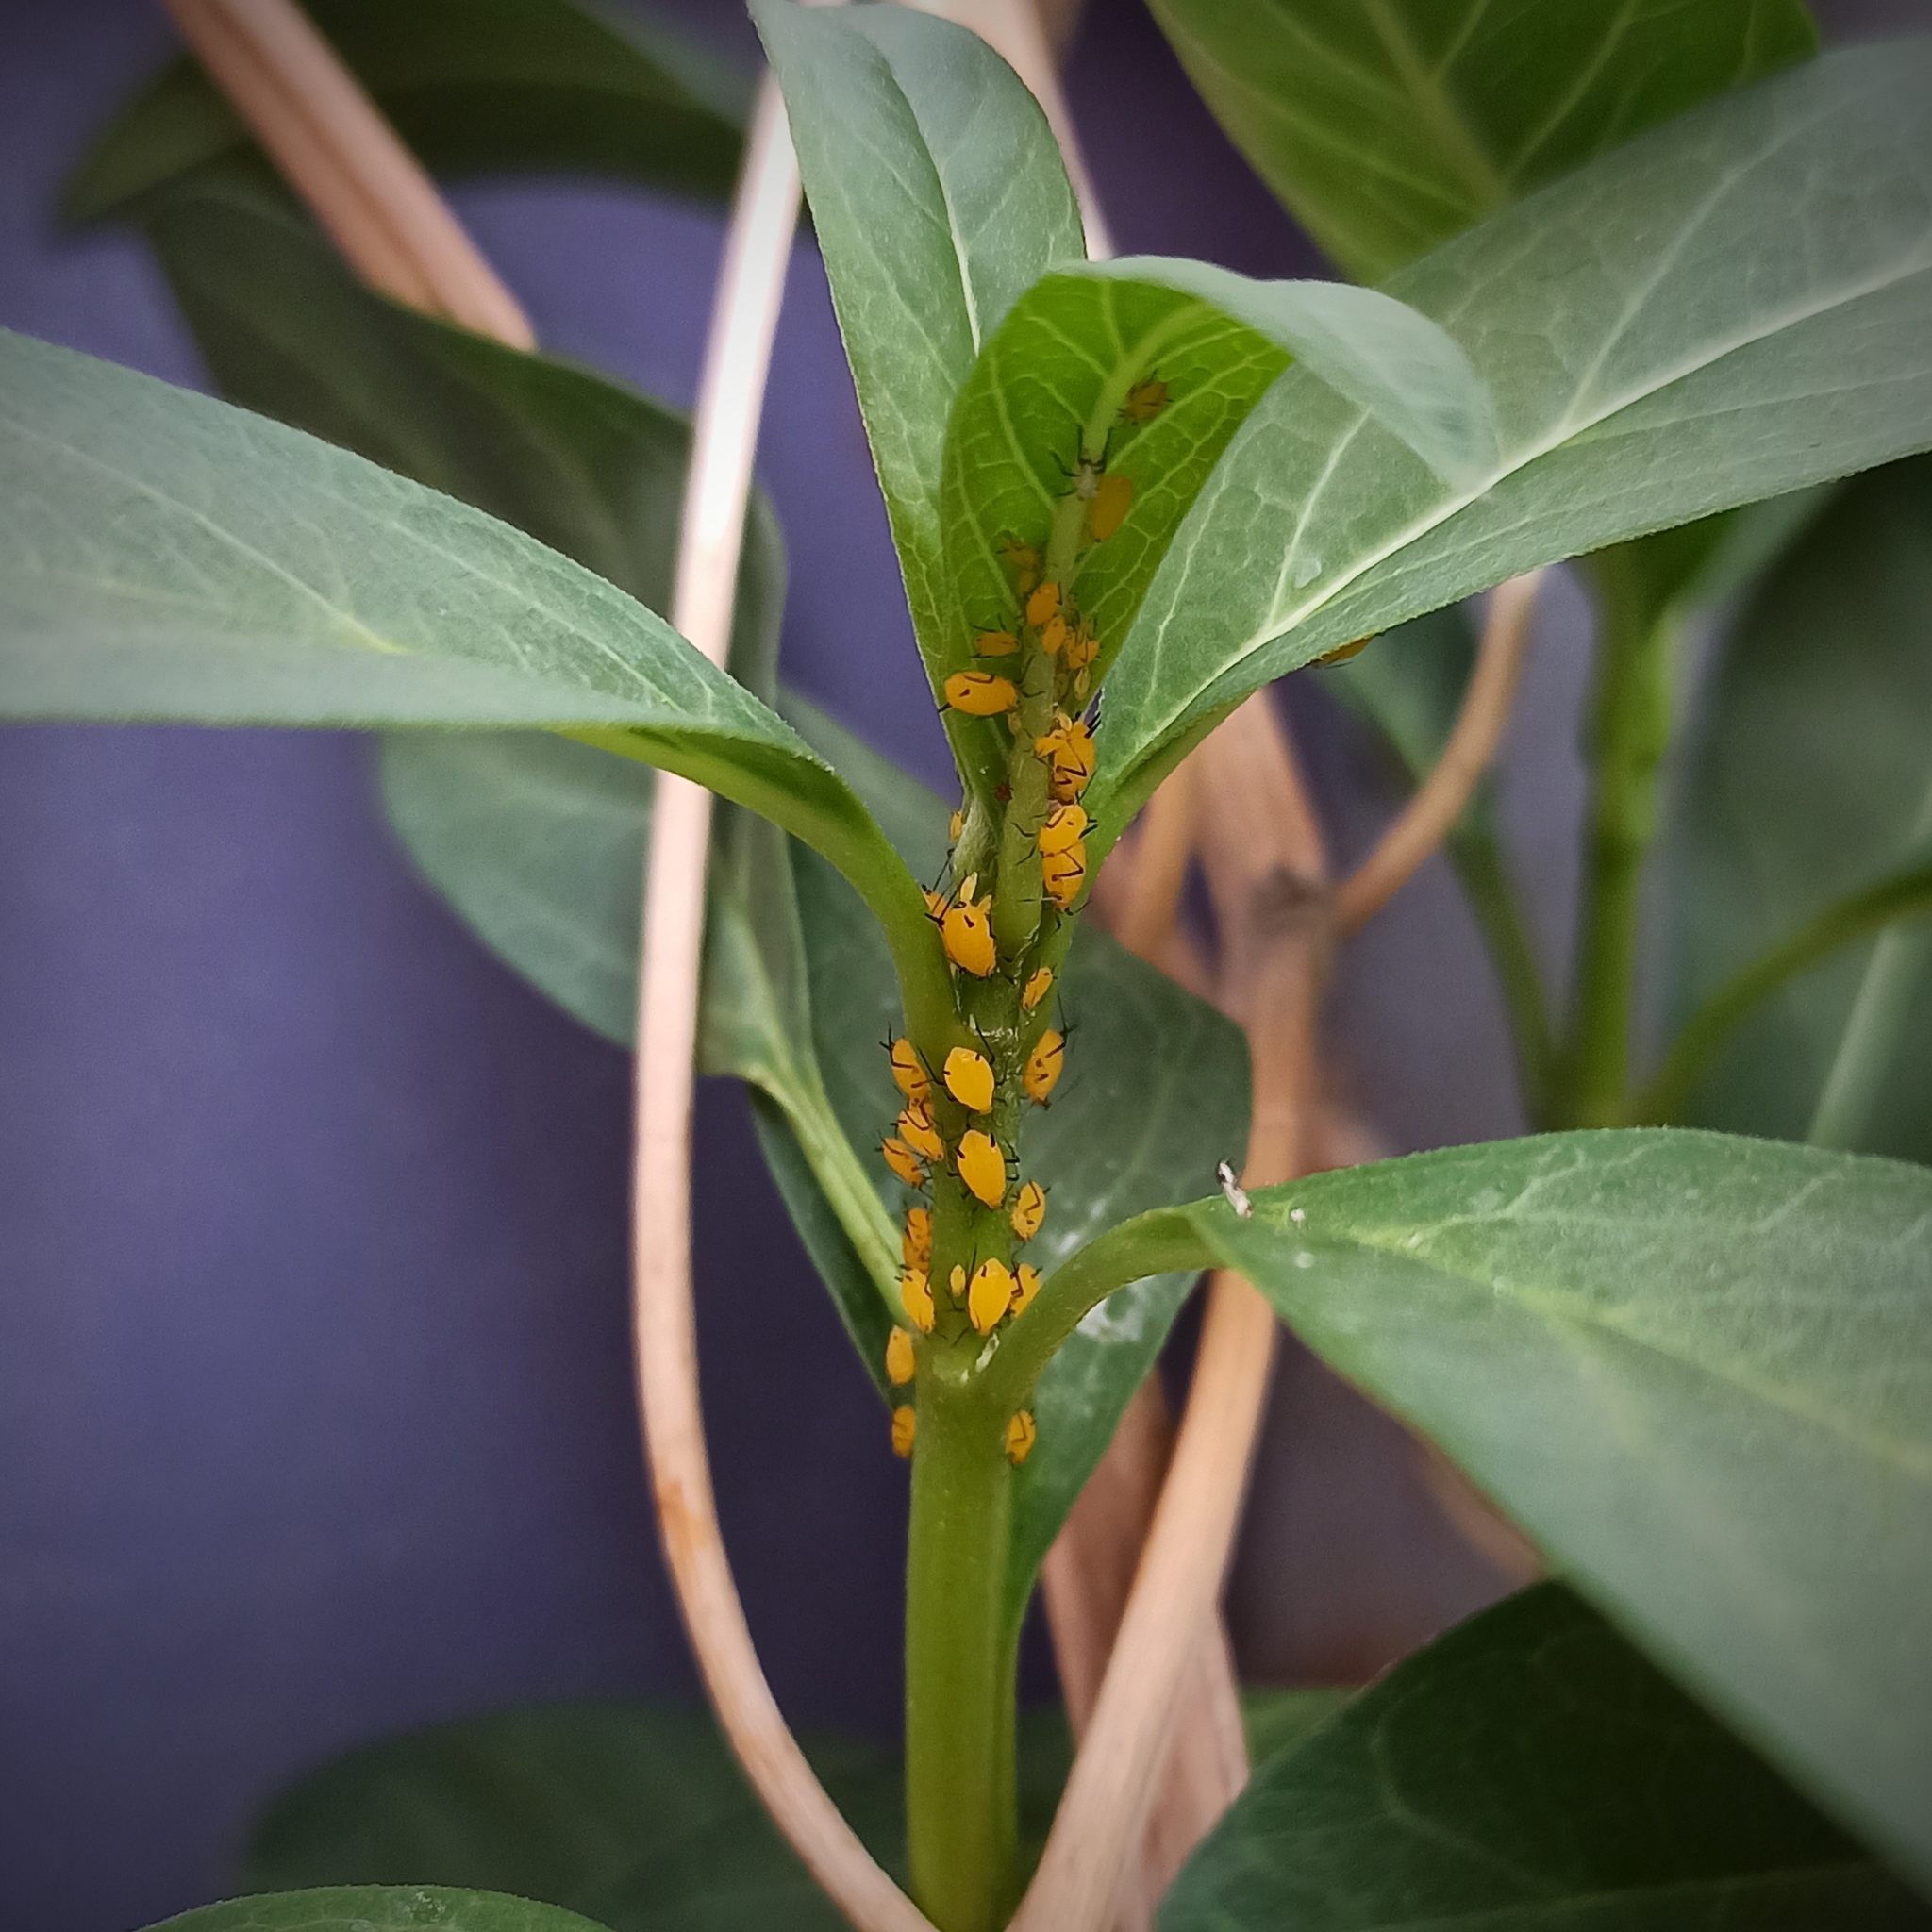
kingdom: Animalia
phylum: Arthropoda
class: Insecta
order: Hemiptera
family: Aphididae
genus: Aphis
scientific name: Aphis nerii
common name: Oleander aphid
